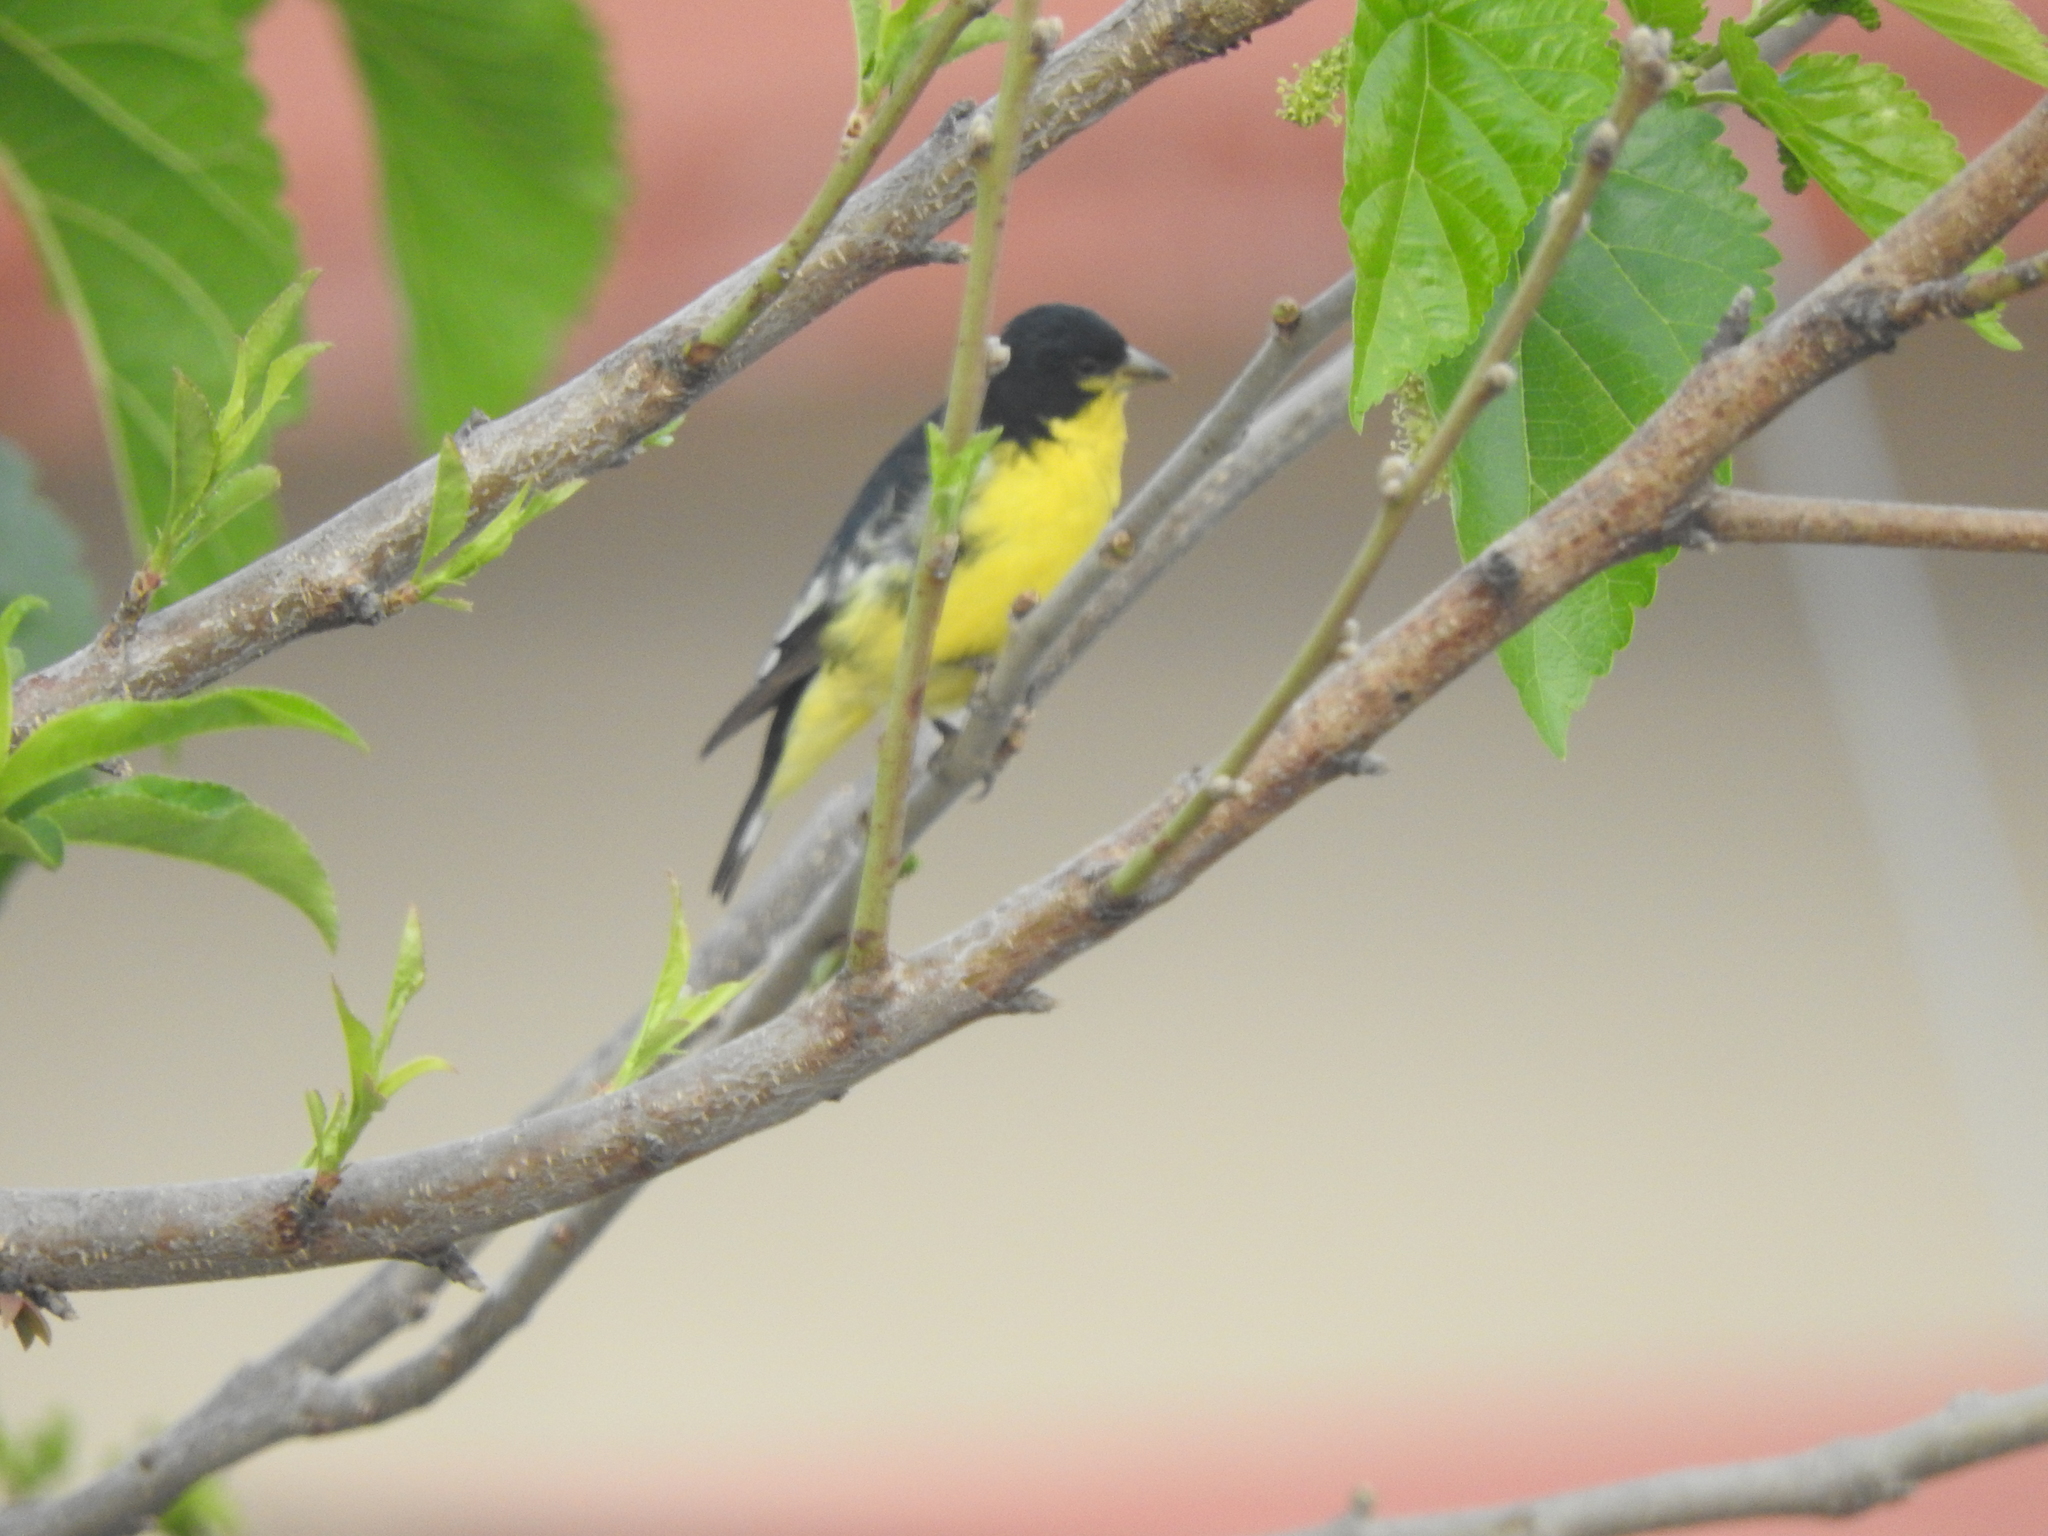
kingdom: Animalia
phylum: Chordata
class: Aves
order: Passeriformes
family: Fringillidae
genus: Spinus
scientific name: Spinus psaltria
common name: Lesser goldfinch
